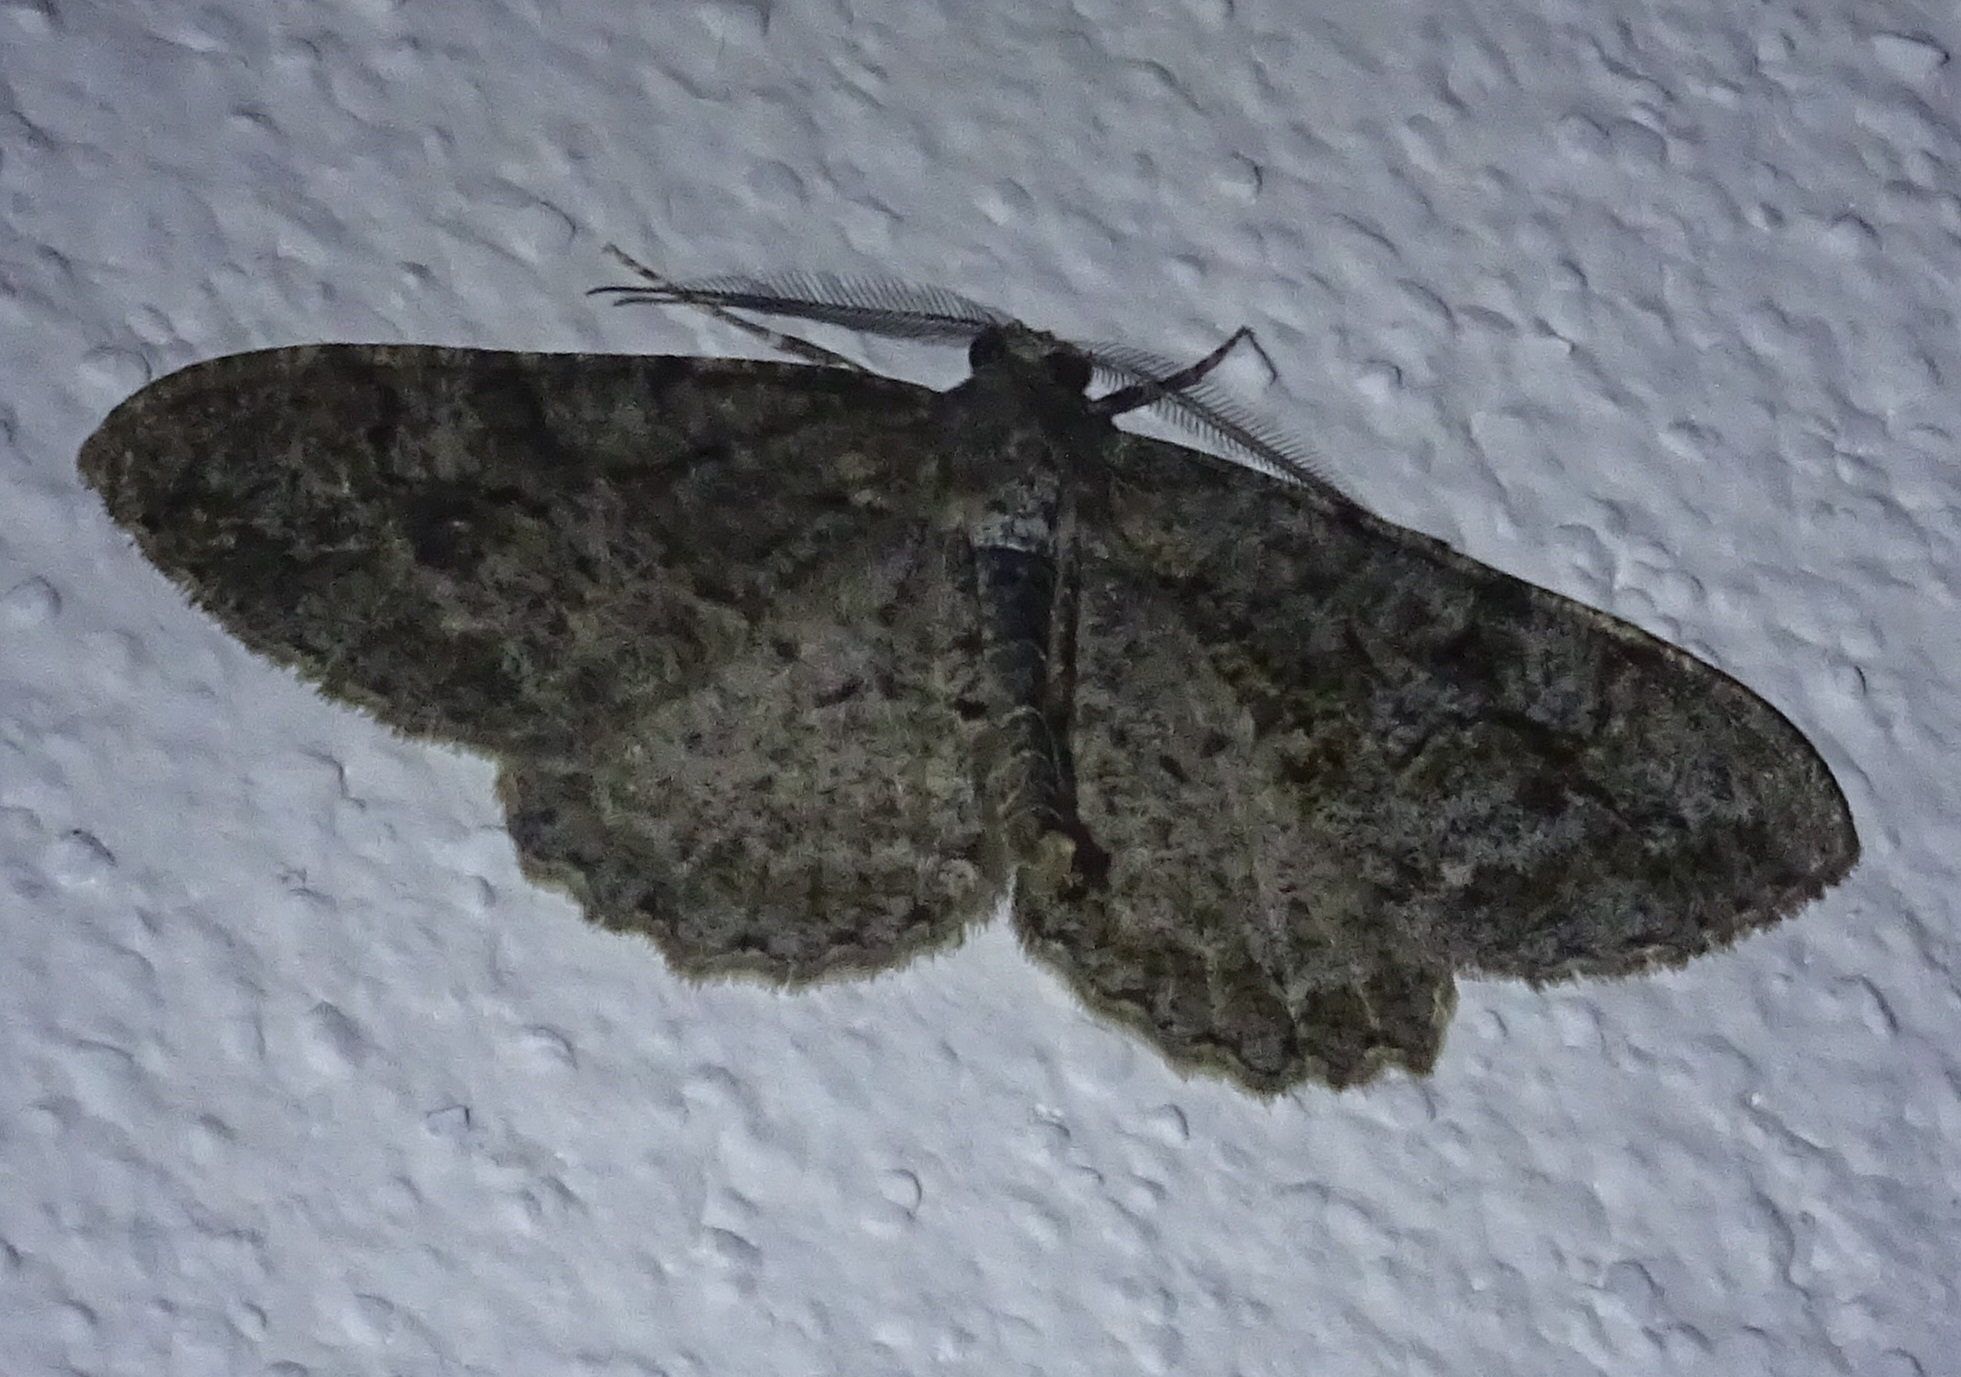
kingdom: Animalia
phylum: Arthropoda
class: Insecta
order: Lepidoptera
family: Geometridae
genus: Alcis
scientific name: Alcis repandata
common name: Mottled beauty
